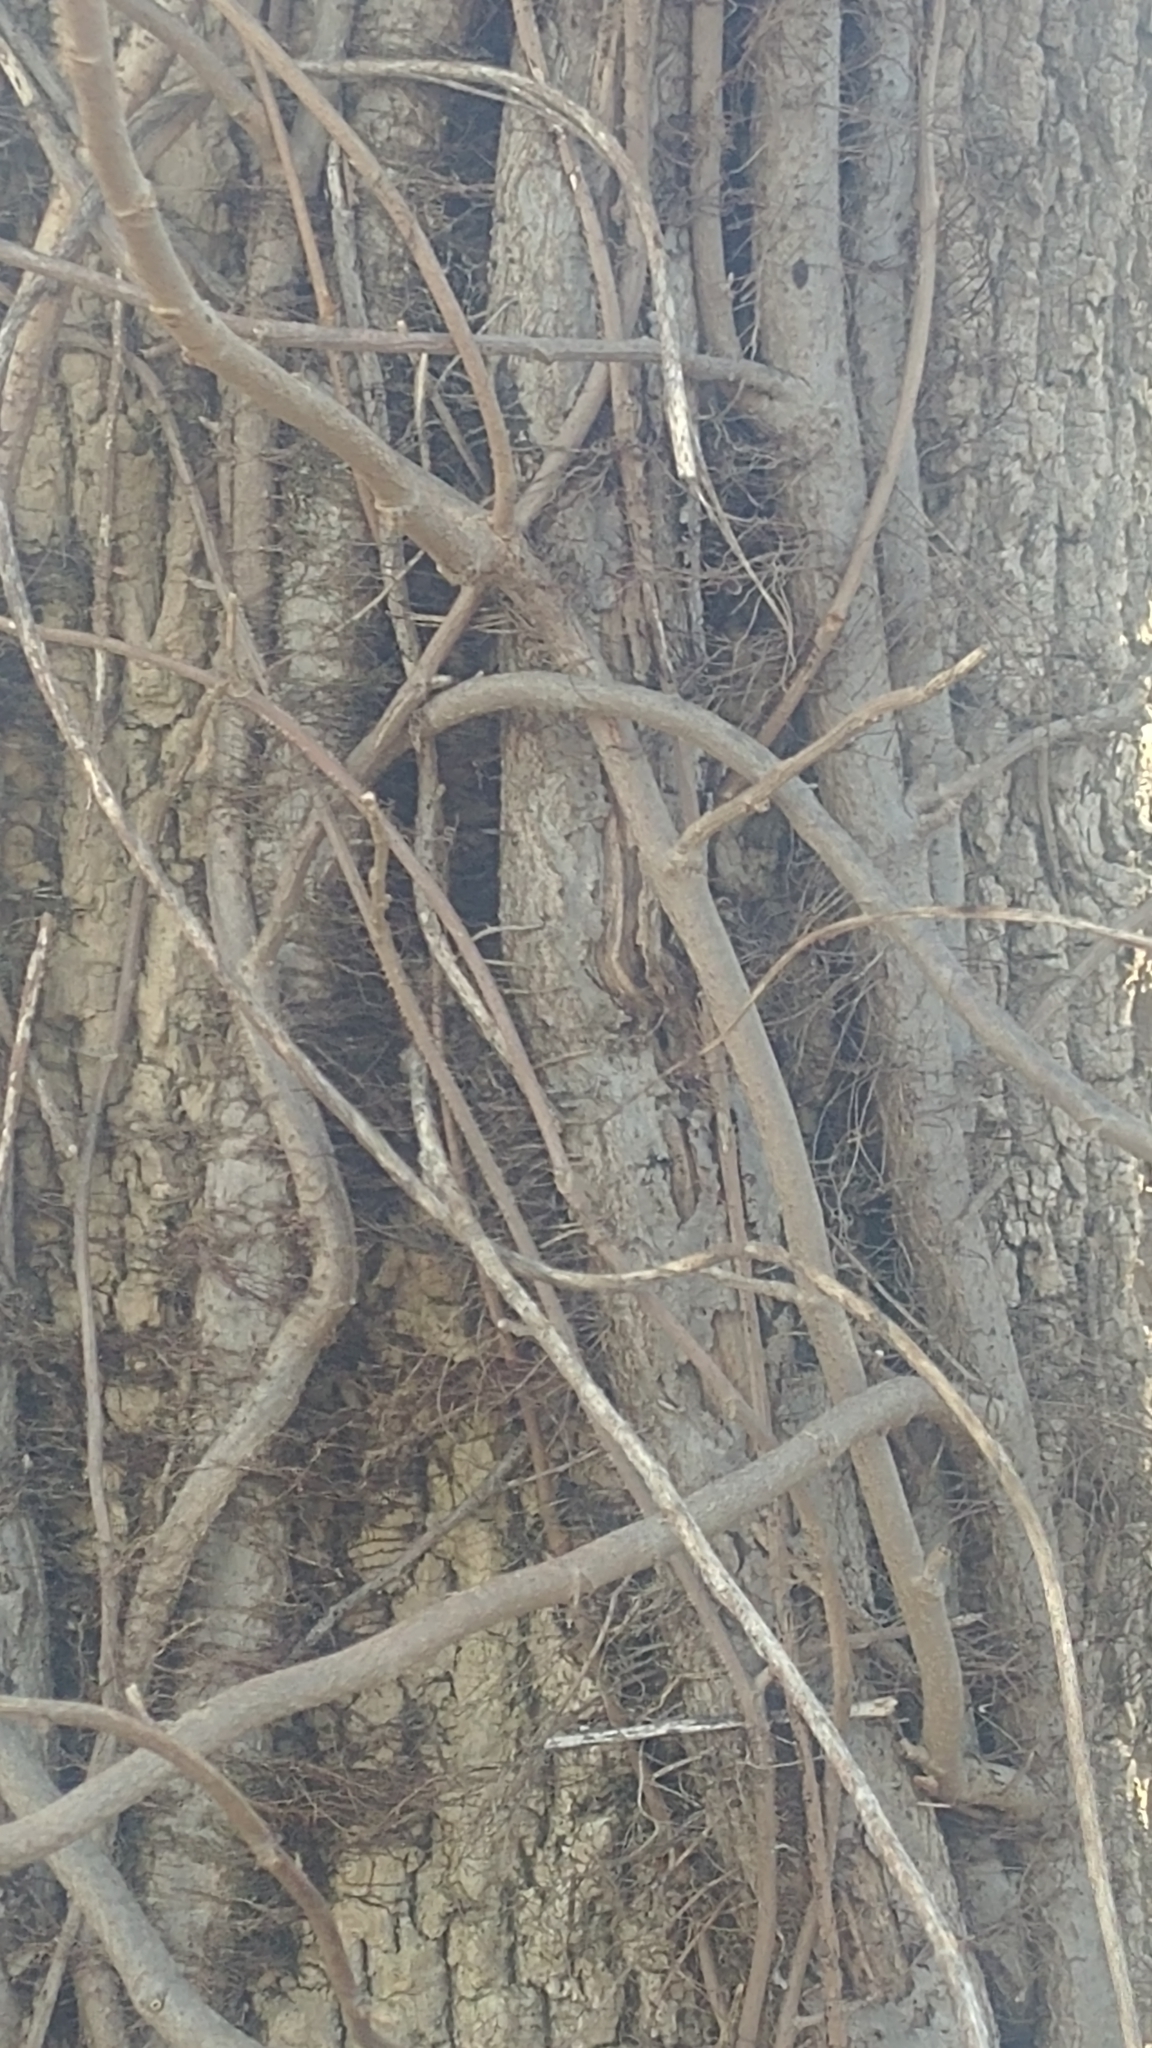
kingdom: Plantae
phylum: Tracheophyta
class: Magnoliopsida
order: Sapindales
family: Anacardiaceae
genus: Toxicodendron
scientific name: Toxicodendron radicans
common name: Poison ivy
